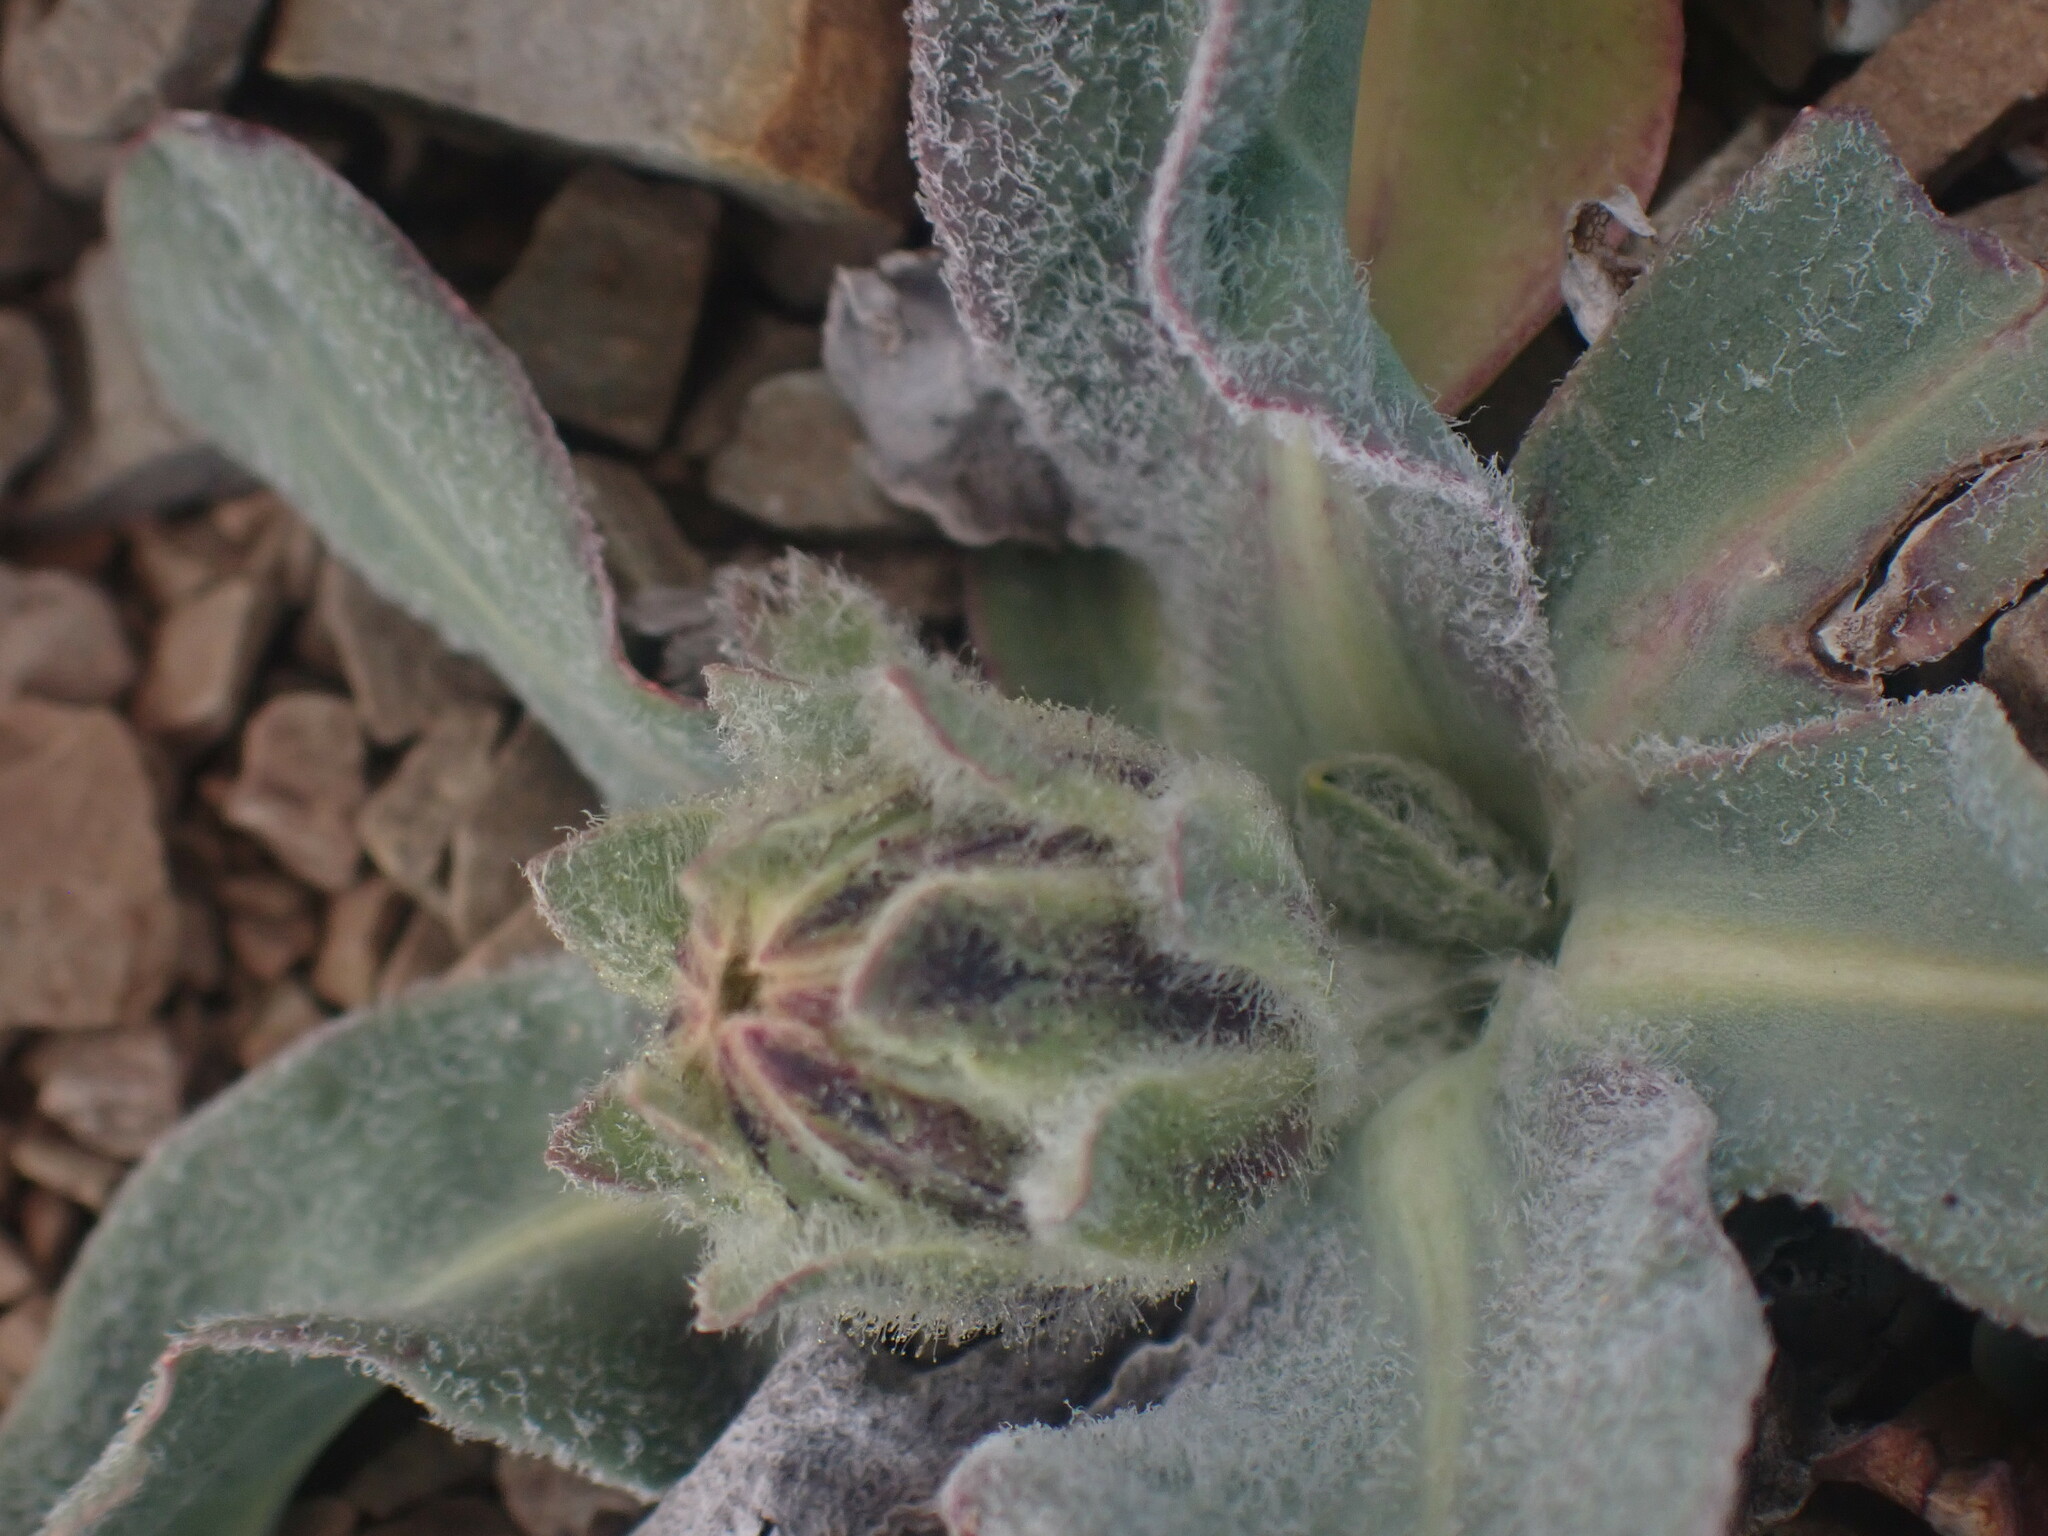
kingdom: Plantae
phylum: Tracheophyta
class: Magnoliopsida
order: Asterales
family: Asteraceae
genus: Agoseris
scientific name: Agoseris glauca
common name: Prairie agoseris
